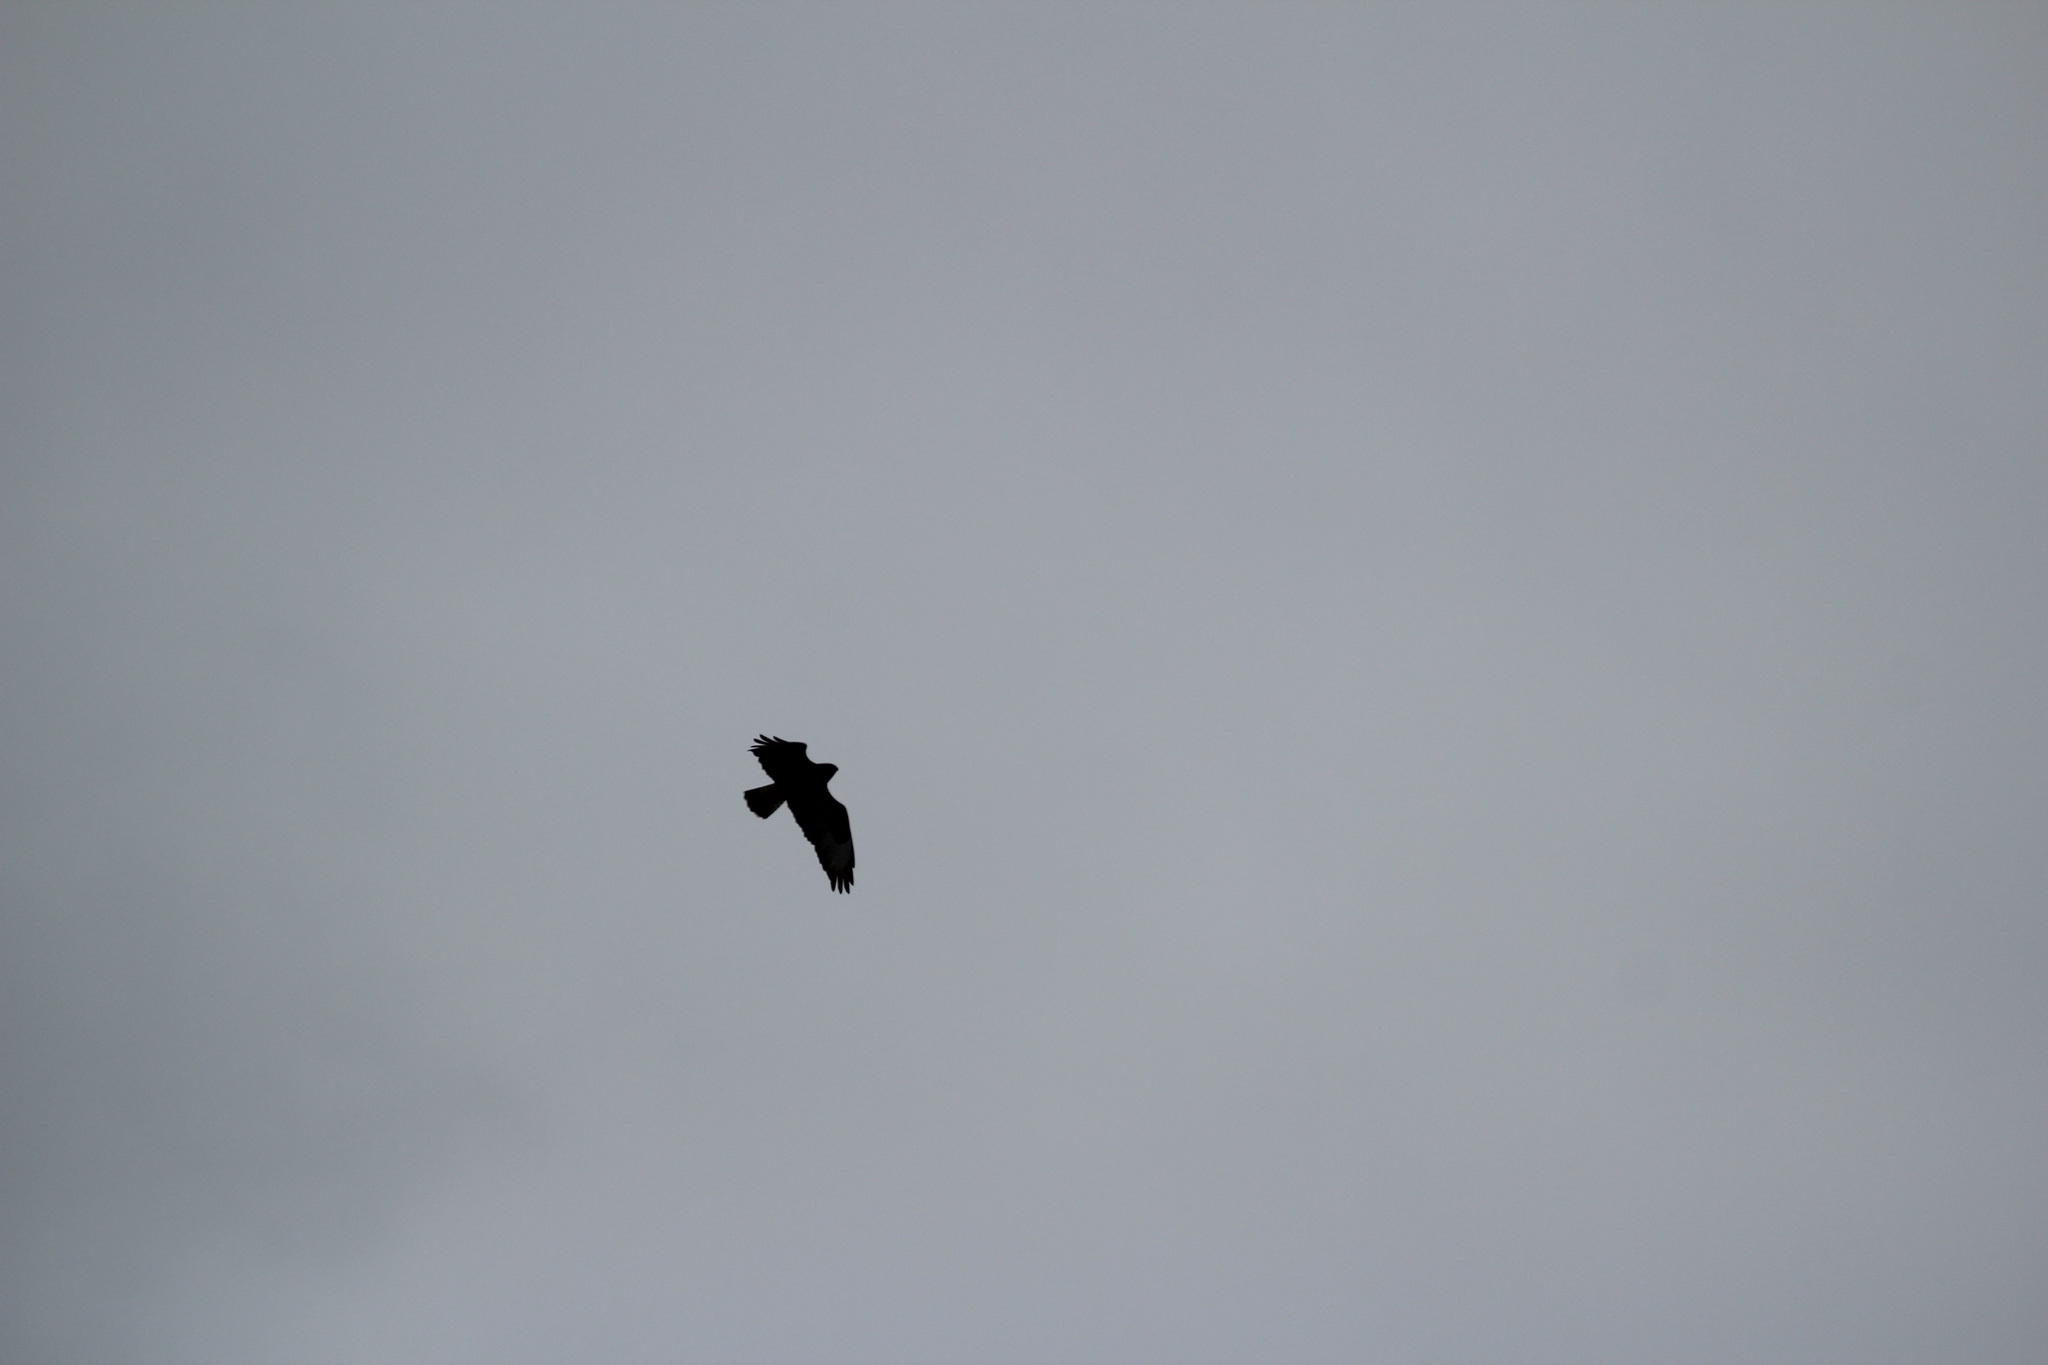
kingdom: Animalia
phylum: Chordata
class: Aves
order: Accipitriformes
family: Accipitridae
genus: Buteo
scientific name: Buteo lagopus
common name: Rough-legged buzzard
